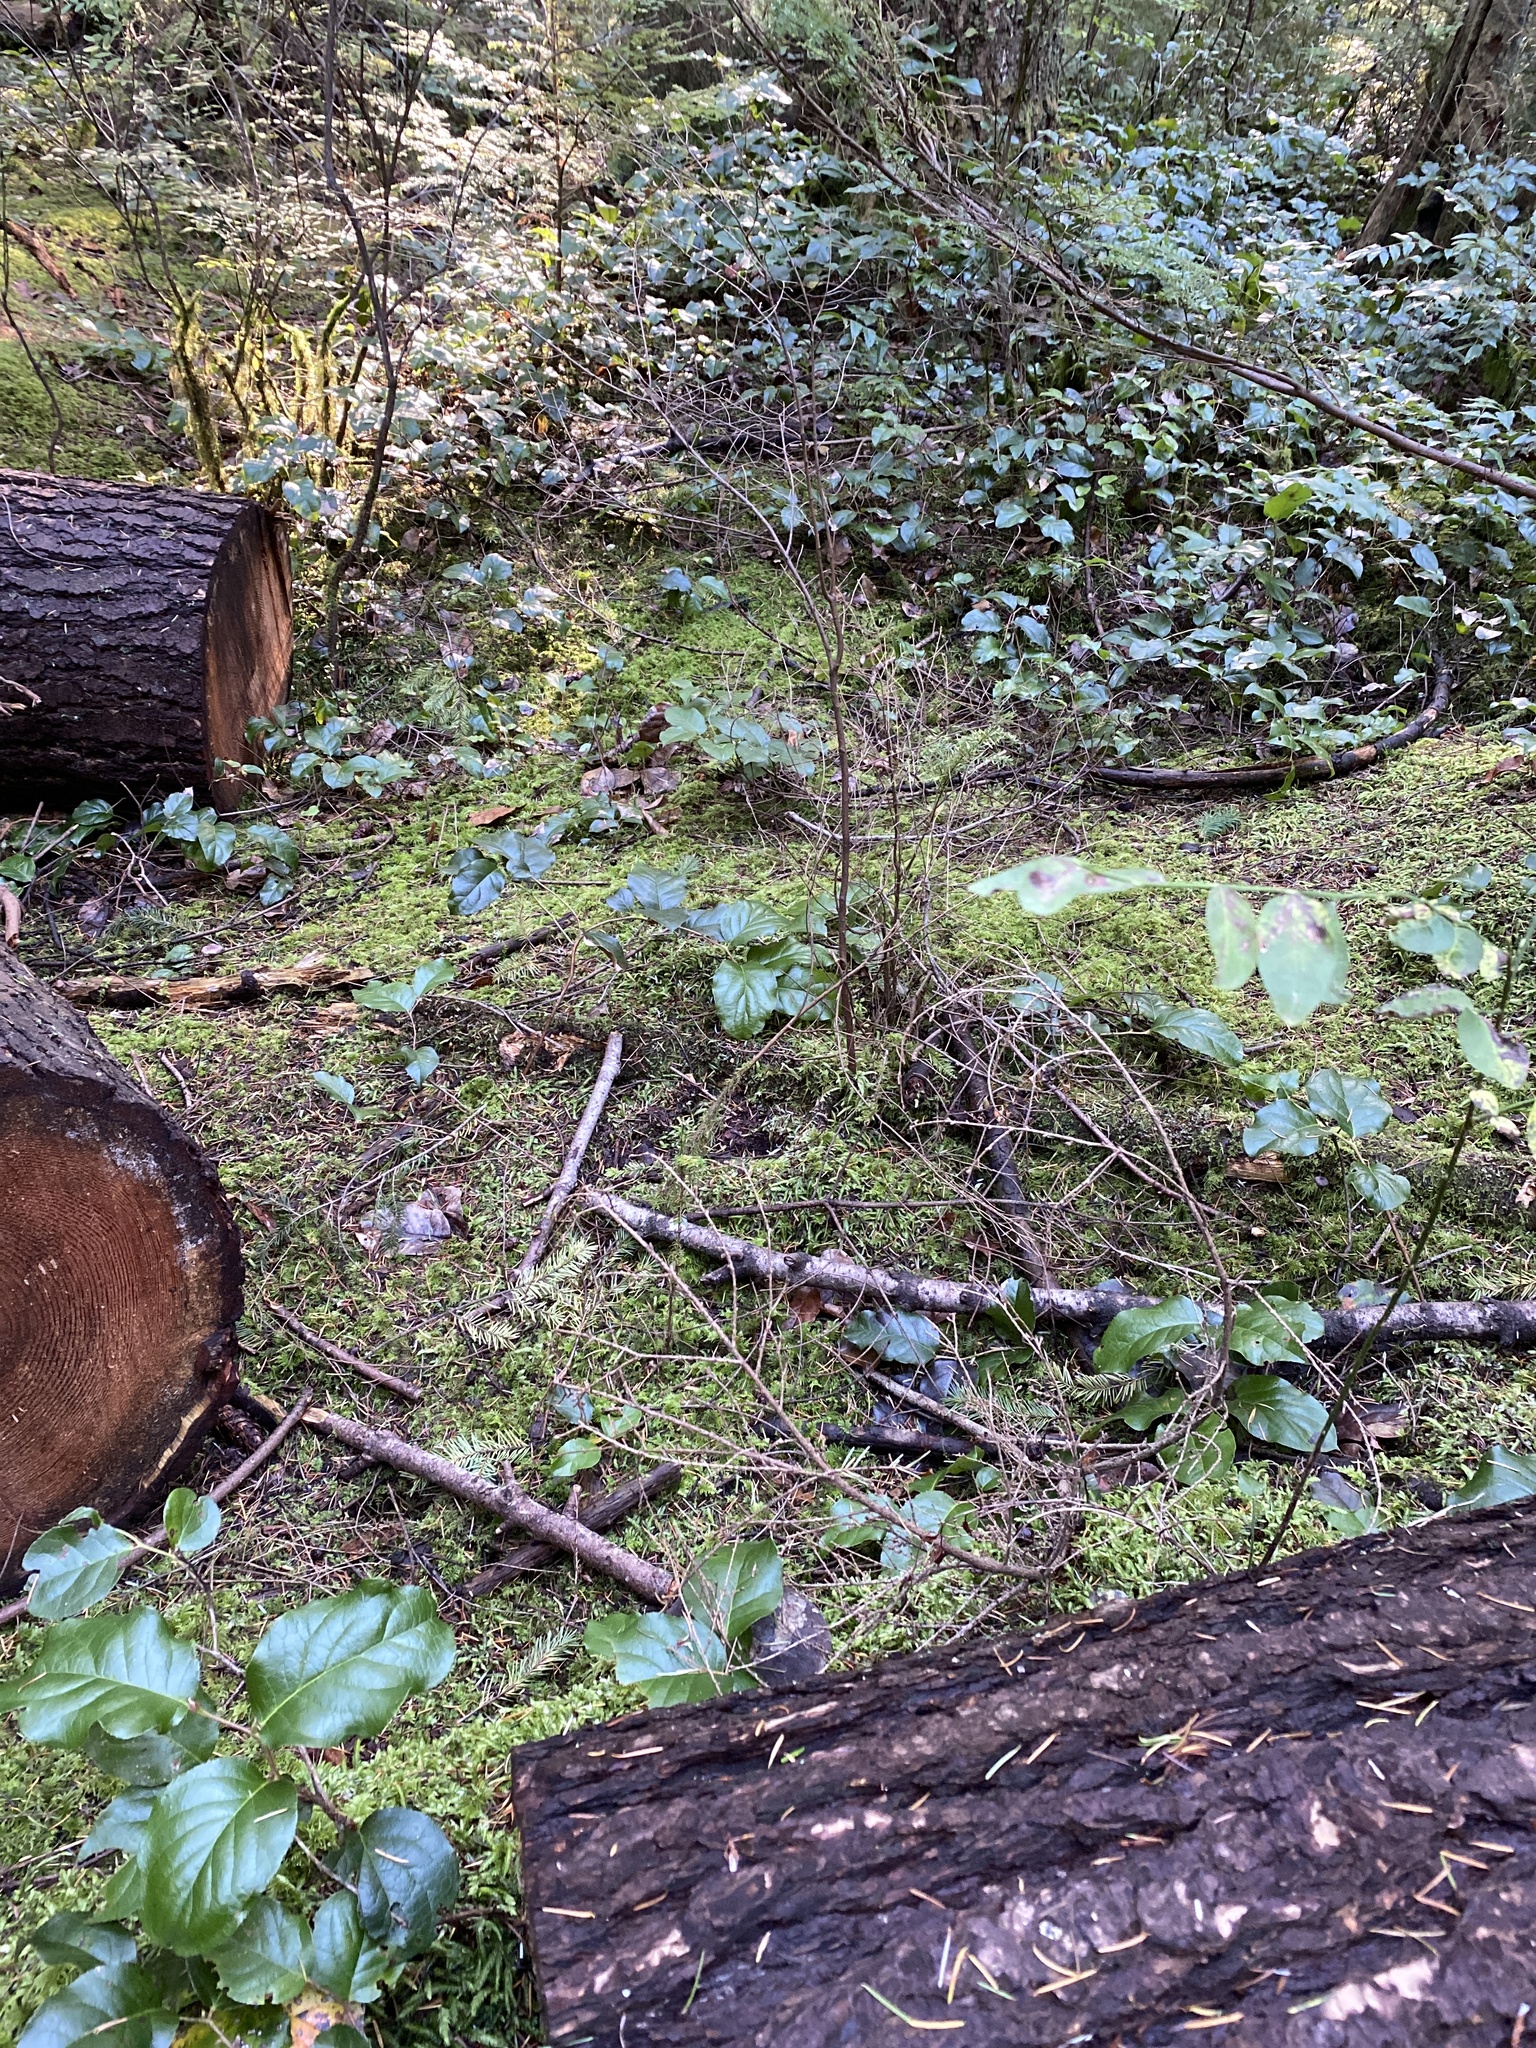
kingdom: Plantae
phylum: Tracheophyta
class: Magnoliopsida
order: Ericales
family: Ericaceae
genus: Gaultheria
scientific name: Gaultheria shallon
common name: Shallon
